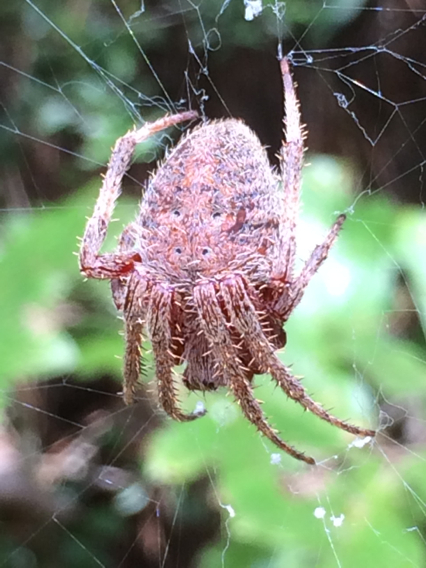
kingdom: Animalia
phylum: Arthropoda
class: Arachnida
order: Araneae
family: Araneidae
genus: Neoscona
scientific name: Neoscona crucifera
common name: Spotted orbweaver
